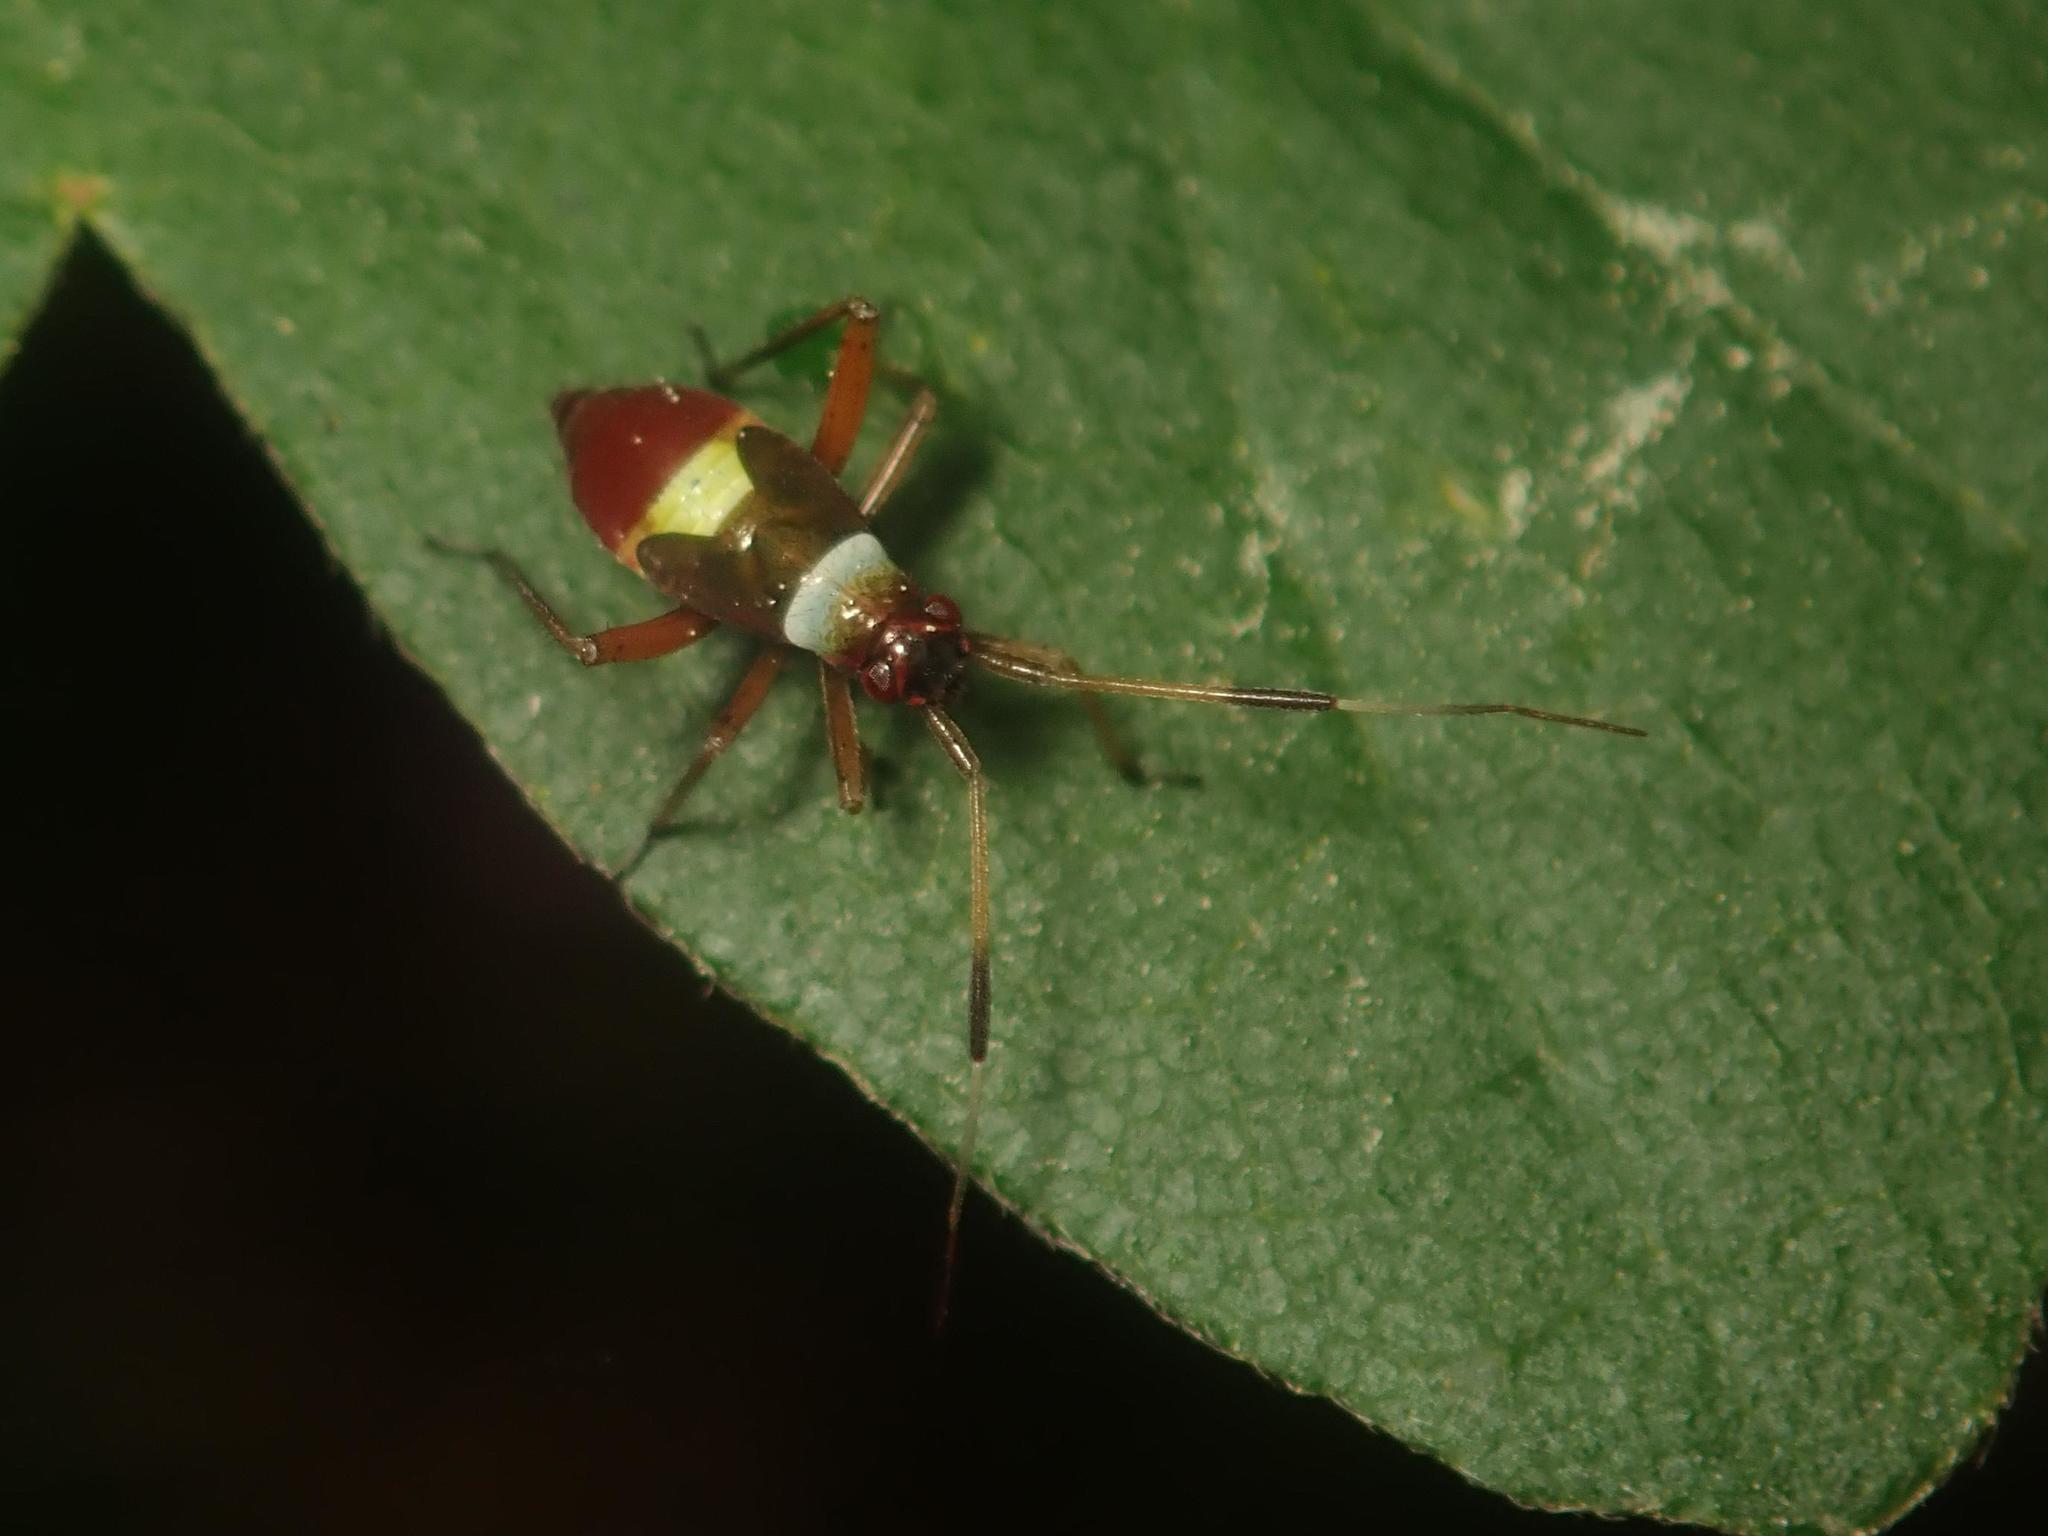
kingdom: Animalia
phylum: Arthropoda
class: Insecta
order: Hemiptera
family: Miridae
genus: Closterotomus
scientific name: Closterotomus biclavatus
